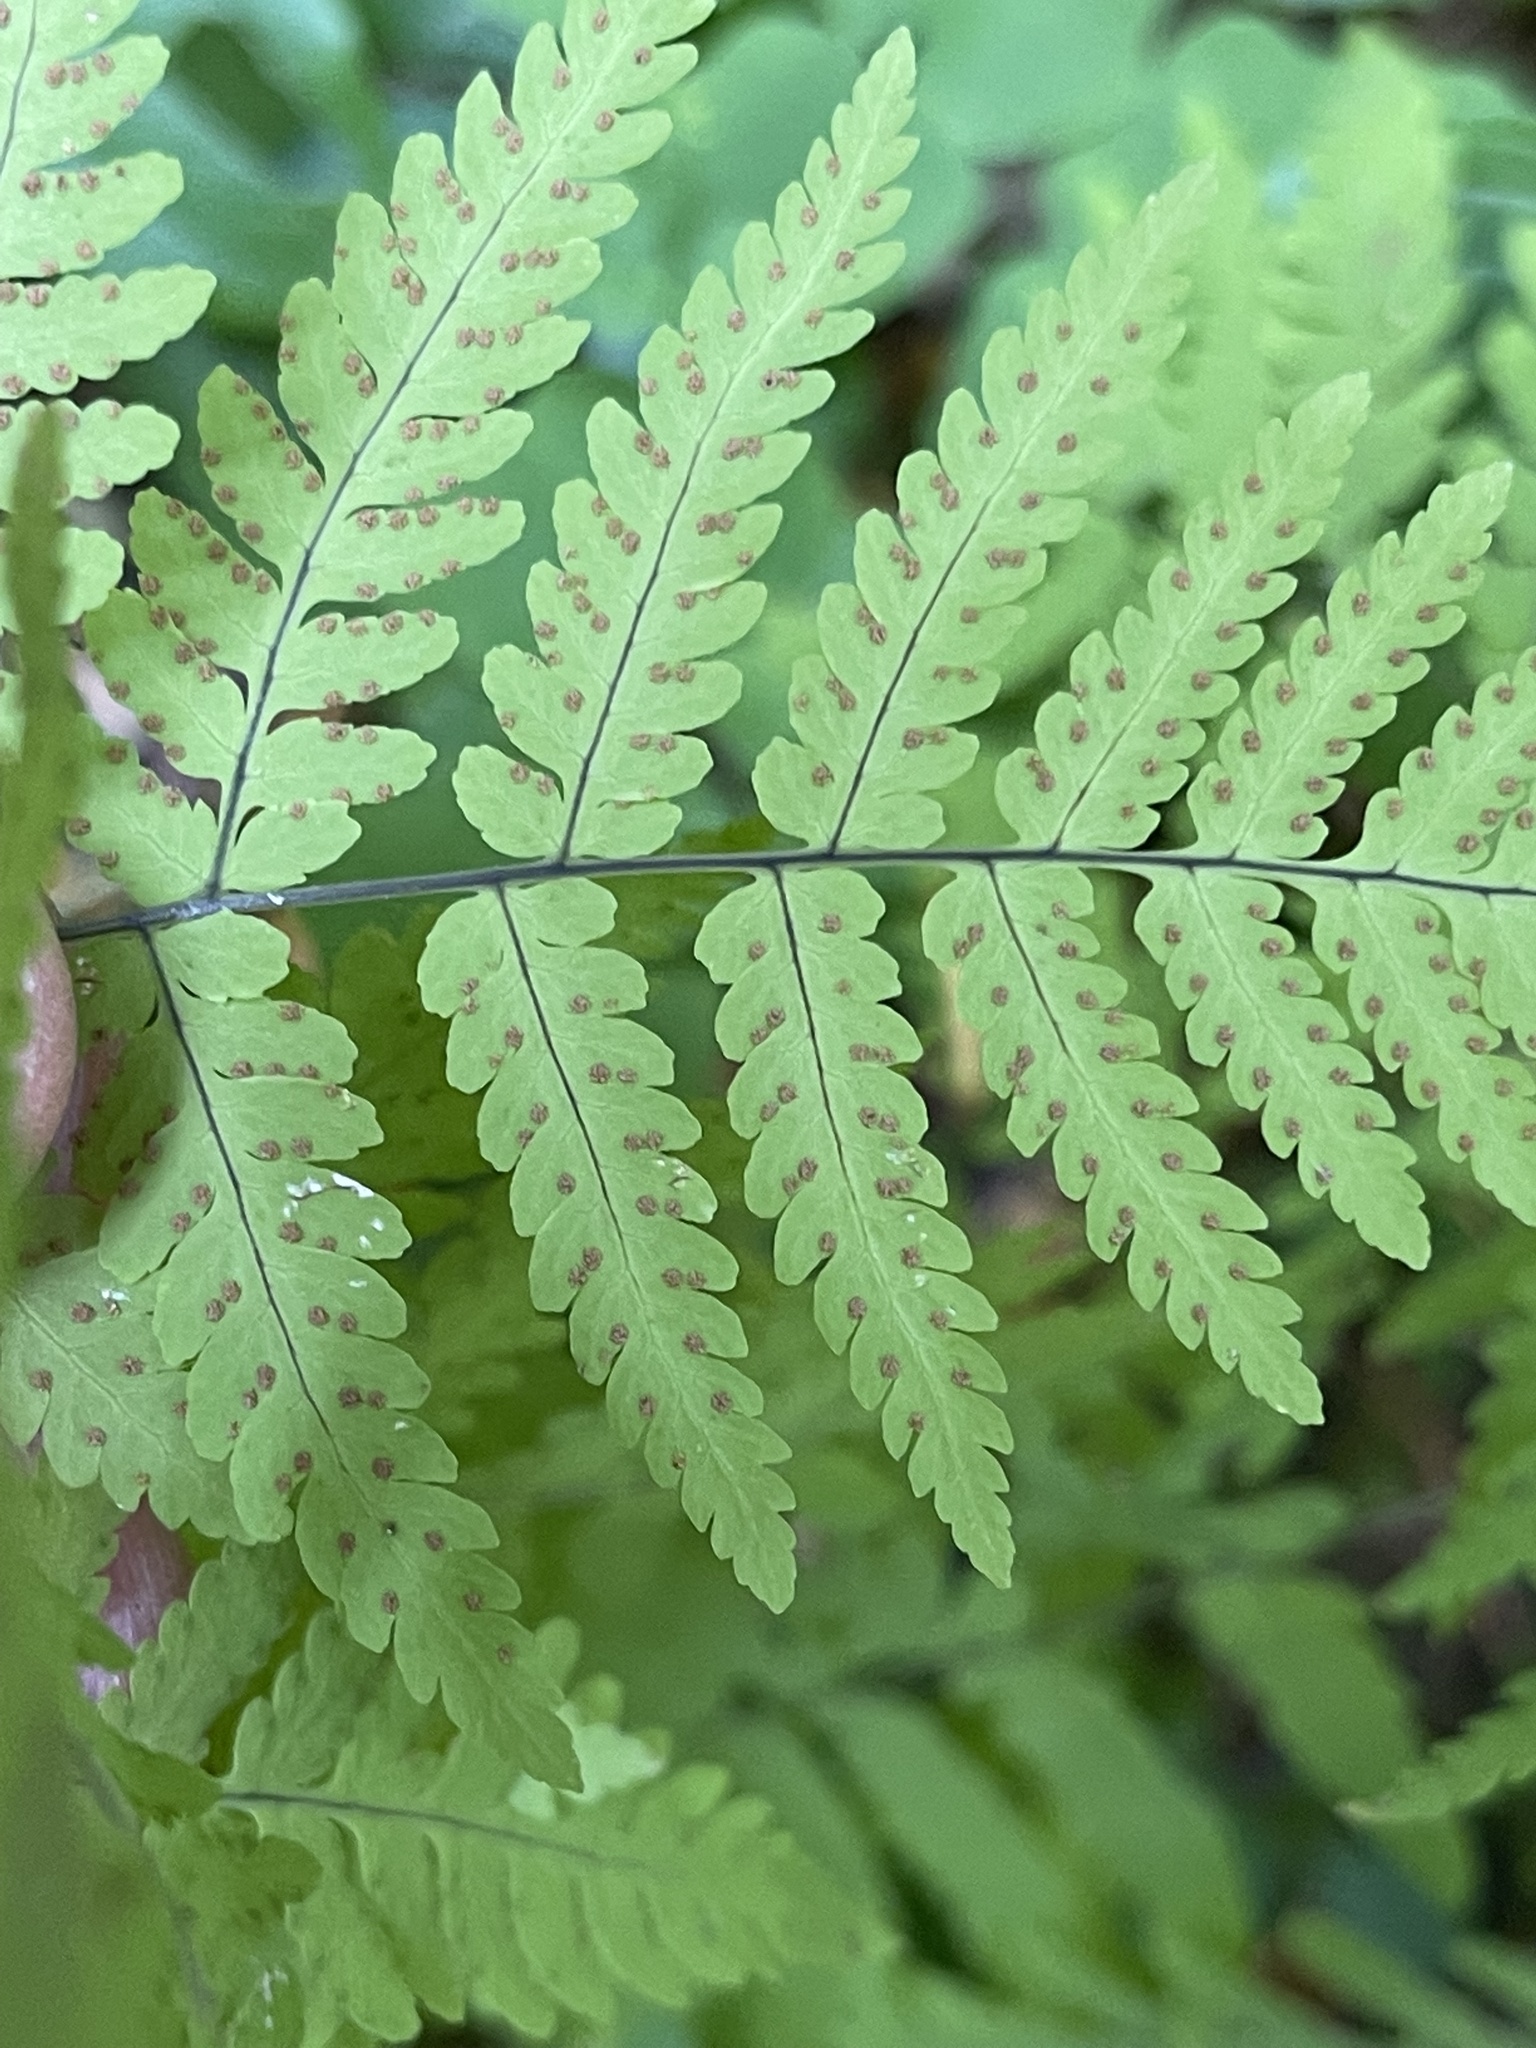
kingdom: Plantae
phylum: Tracheophyta
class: Polypodiopsida
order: Polypodiales
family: Cystopteridaceae
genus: Gymnocarpium
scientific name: Gymnocarpium disjunctum
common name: Western oak fern
